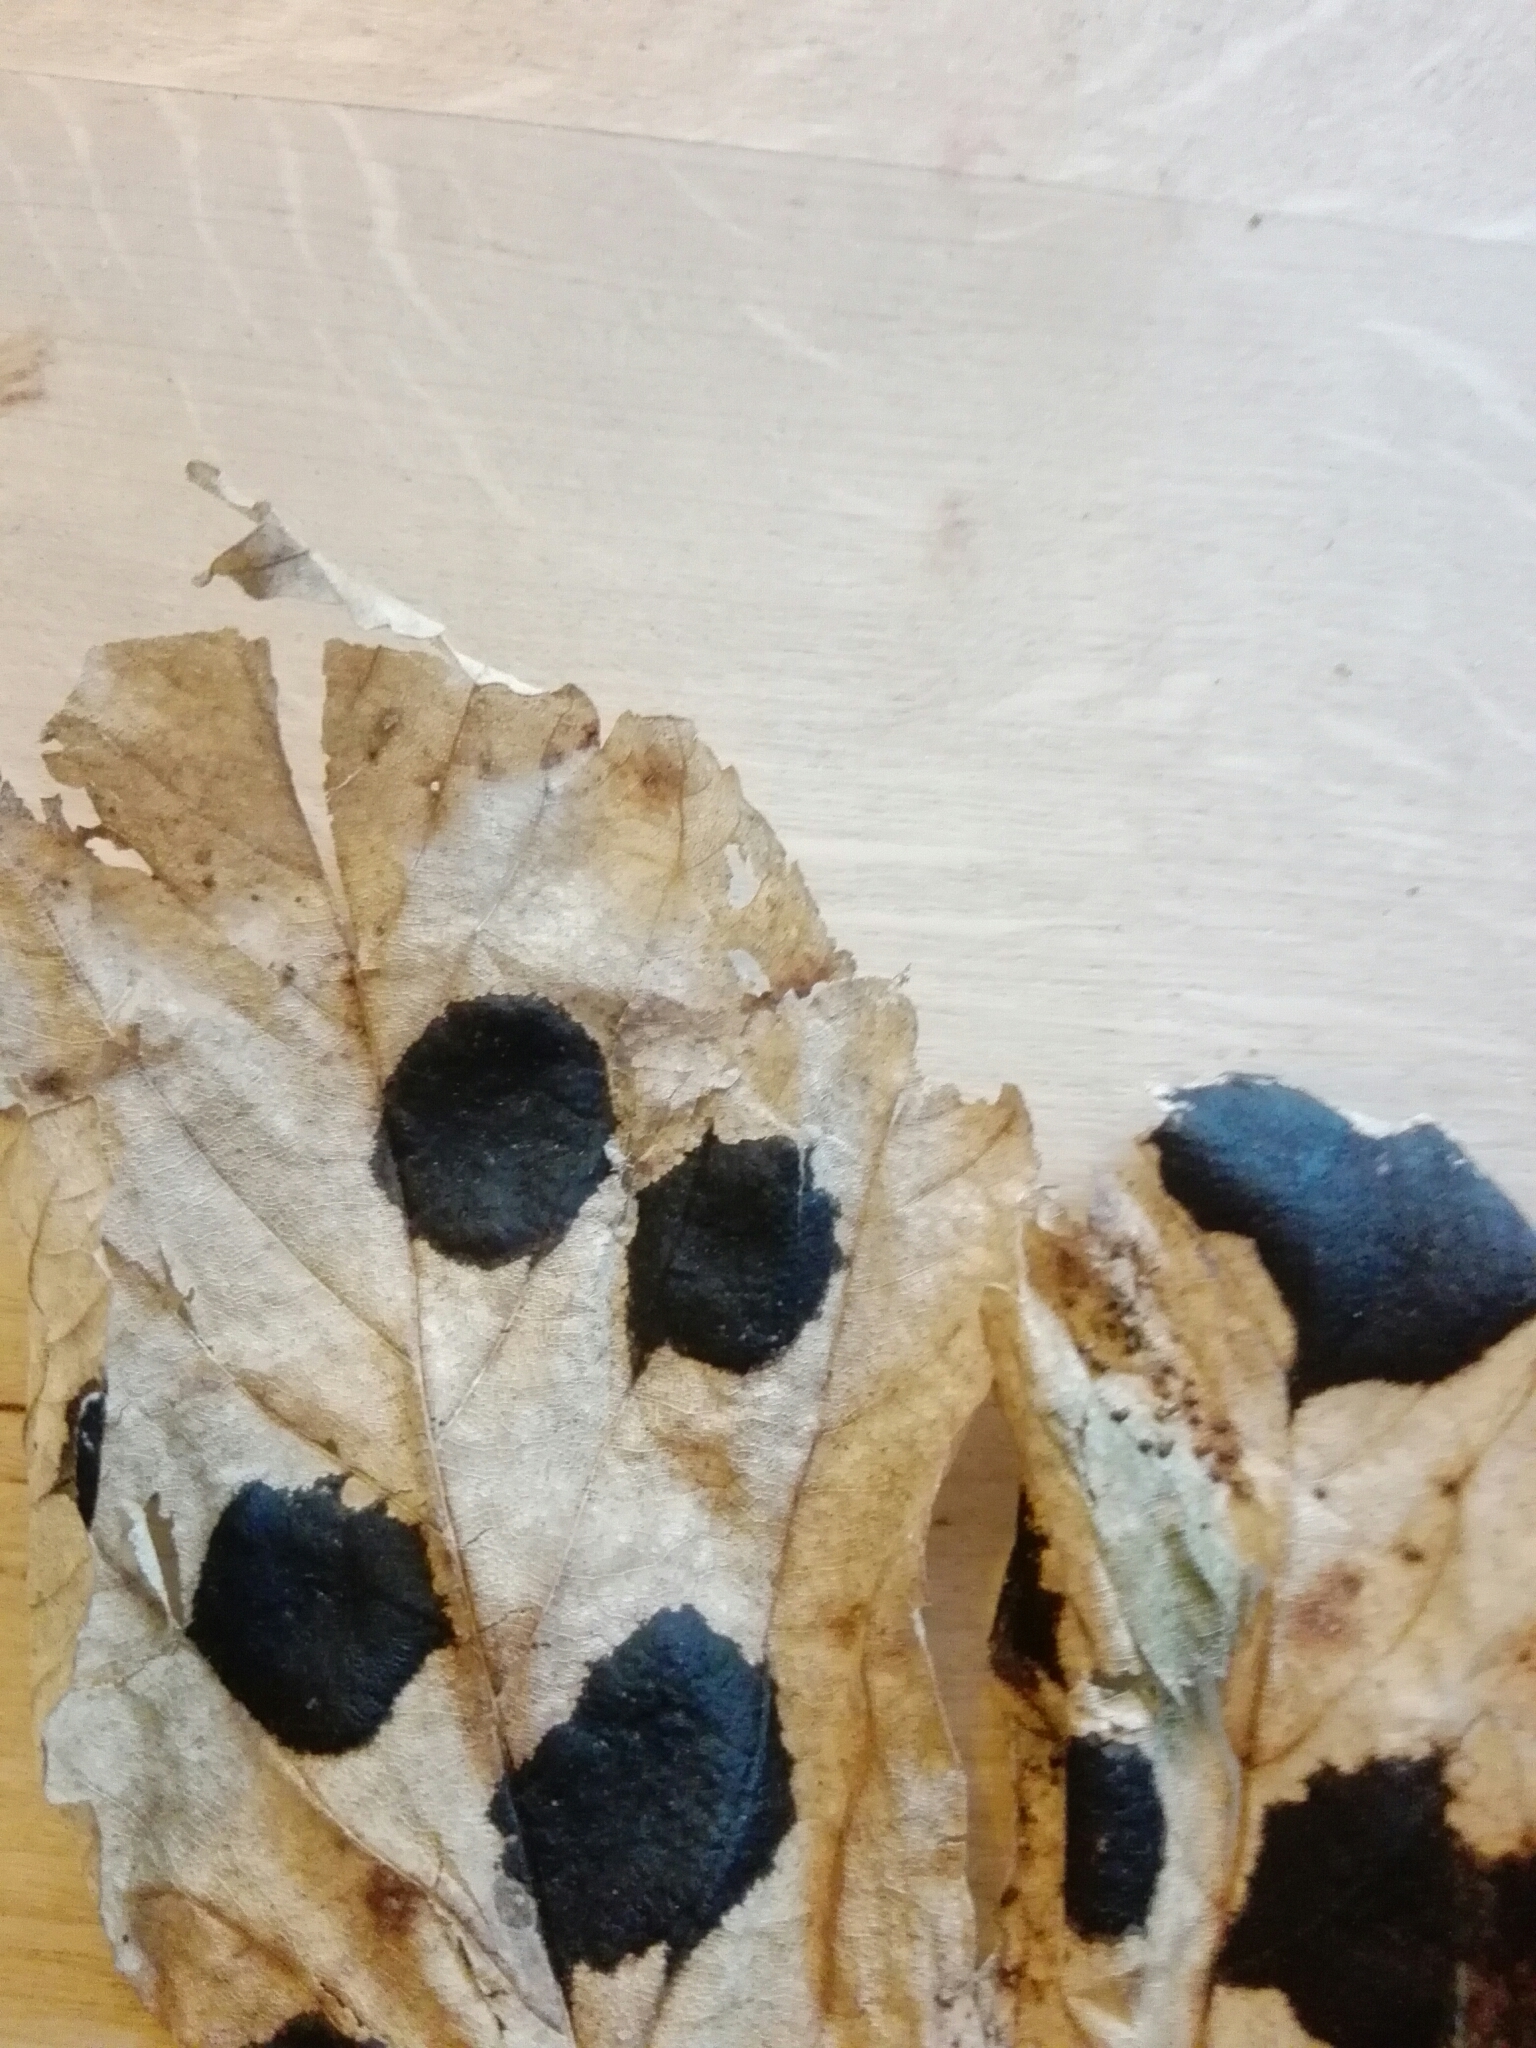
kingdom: Fungi
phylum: Ascomycota
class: Leotiomycetes
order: Rhytismatales
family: Rhytismataceae
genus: Rhytisma
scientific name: Rhytisma acerinum
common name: European tar spot
